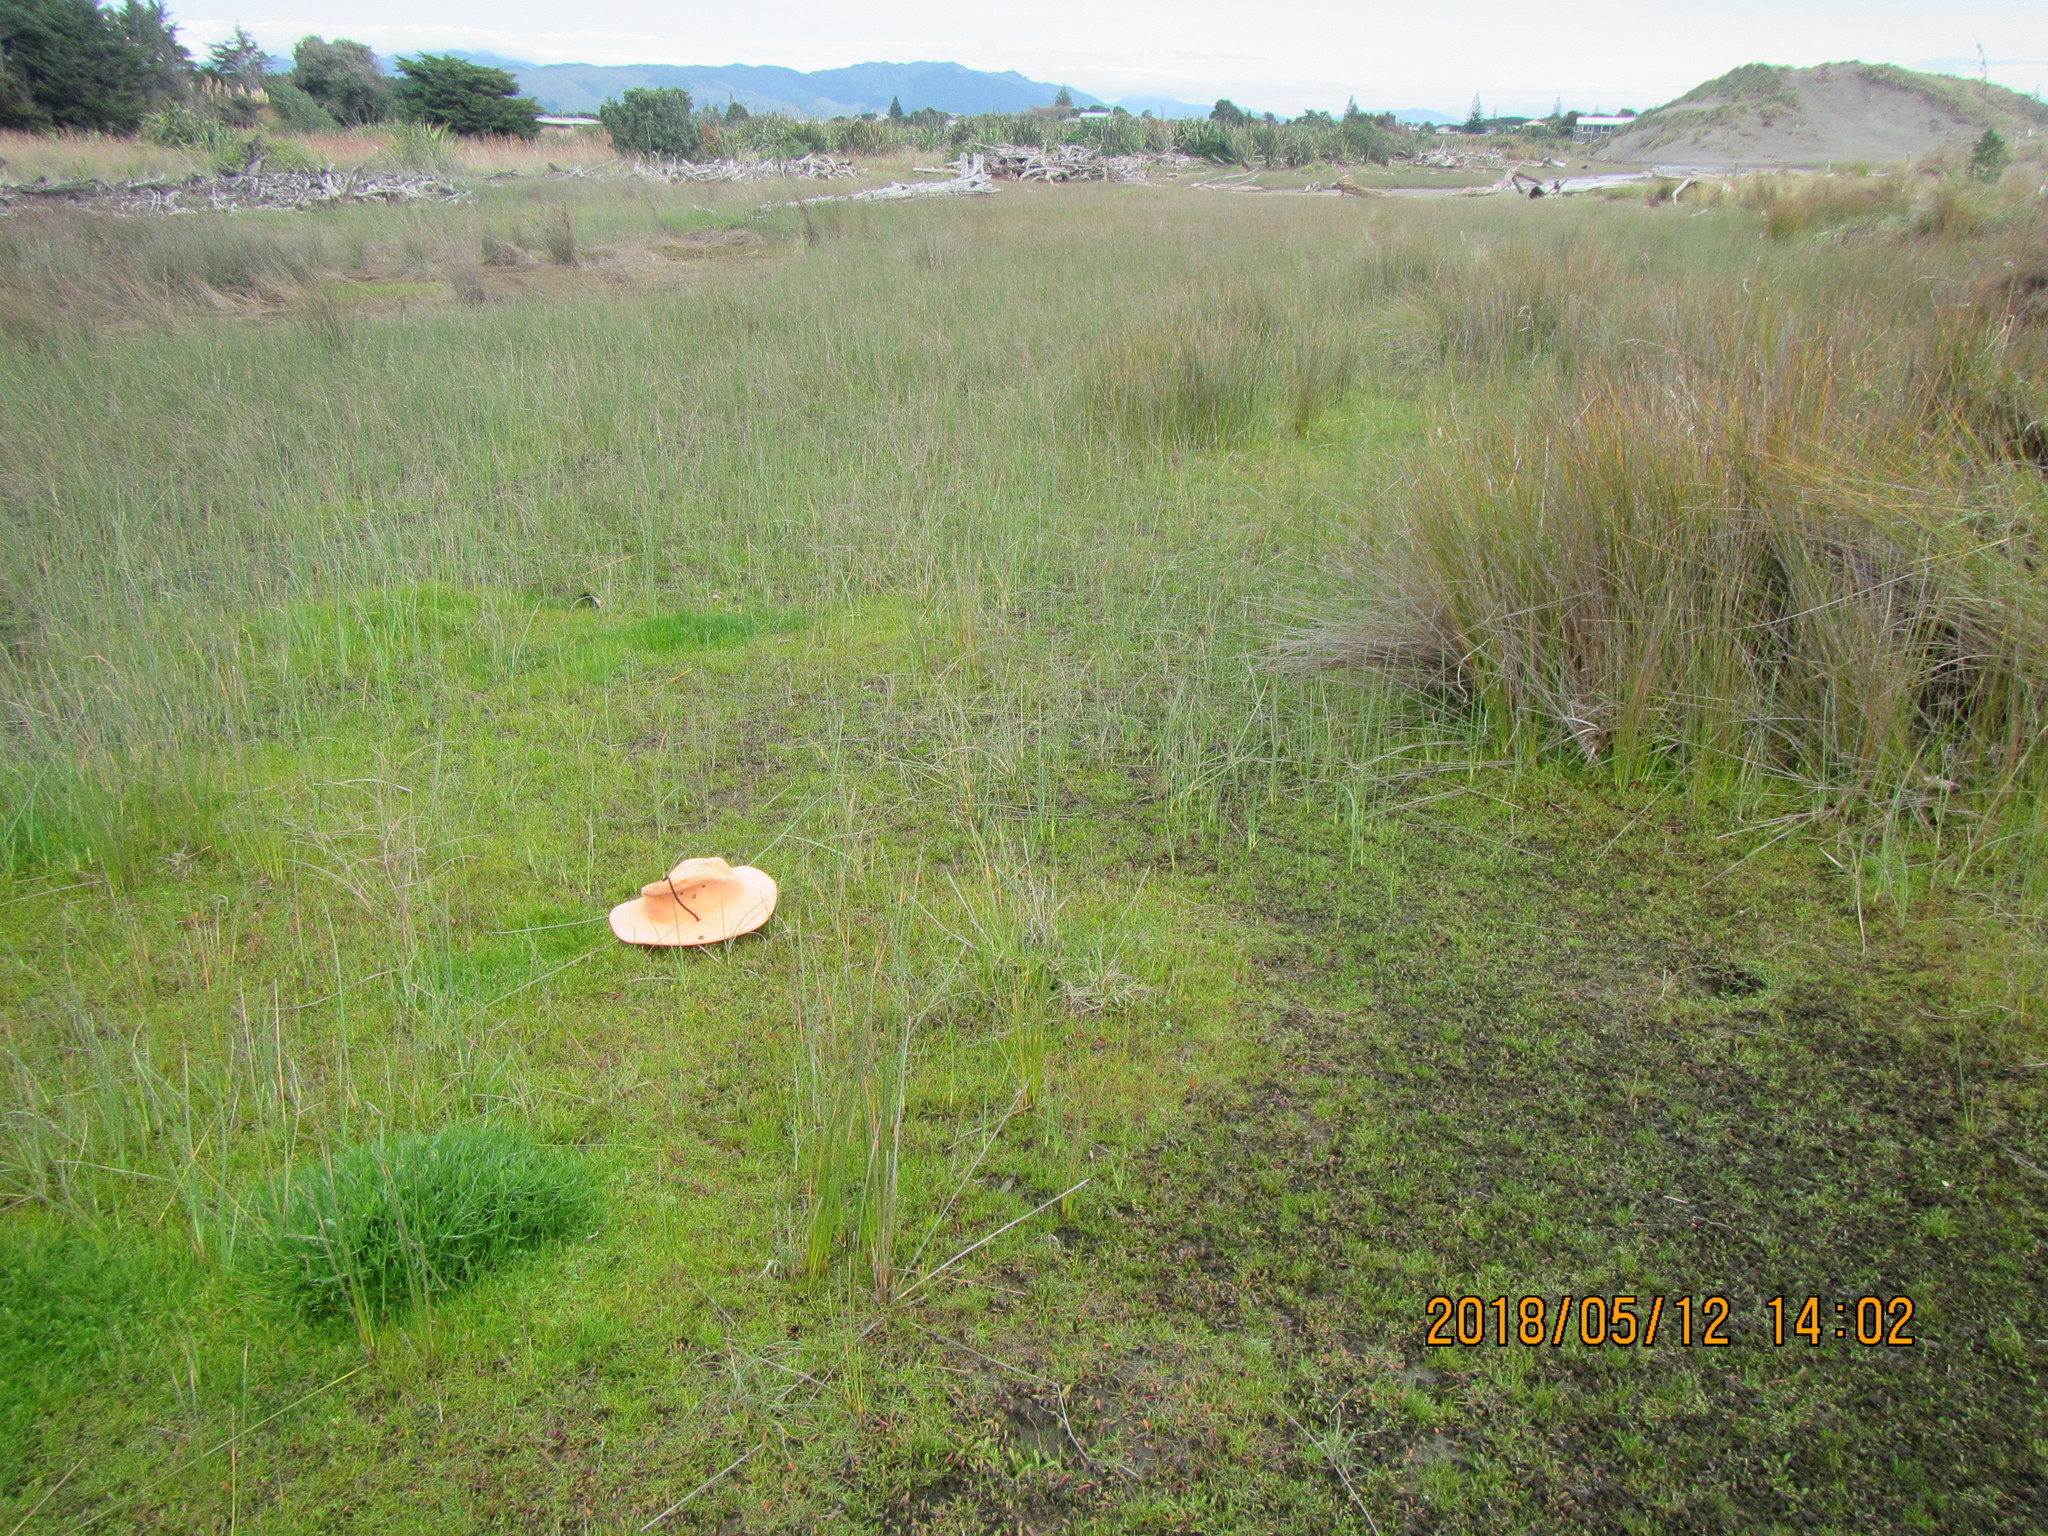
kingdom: Plantae
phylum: Tracheophyta
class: Liliopsida
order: Alismatales
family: Juncaginaceae
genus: Triglochin
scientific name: Triglochin striata
